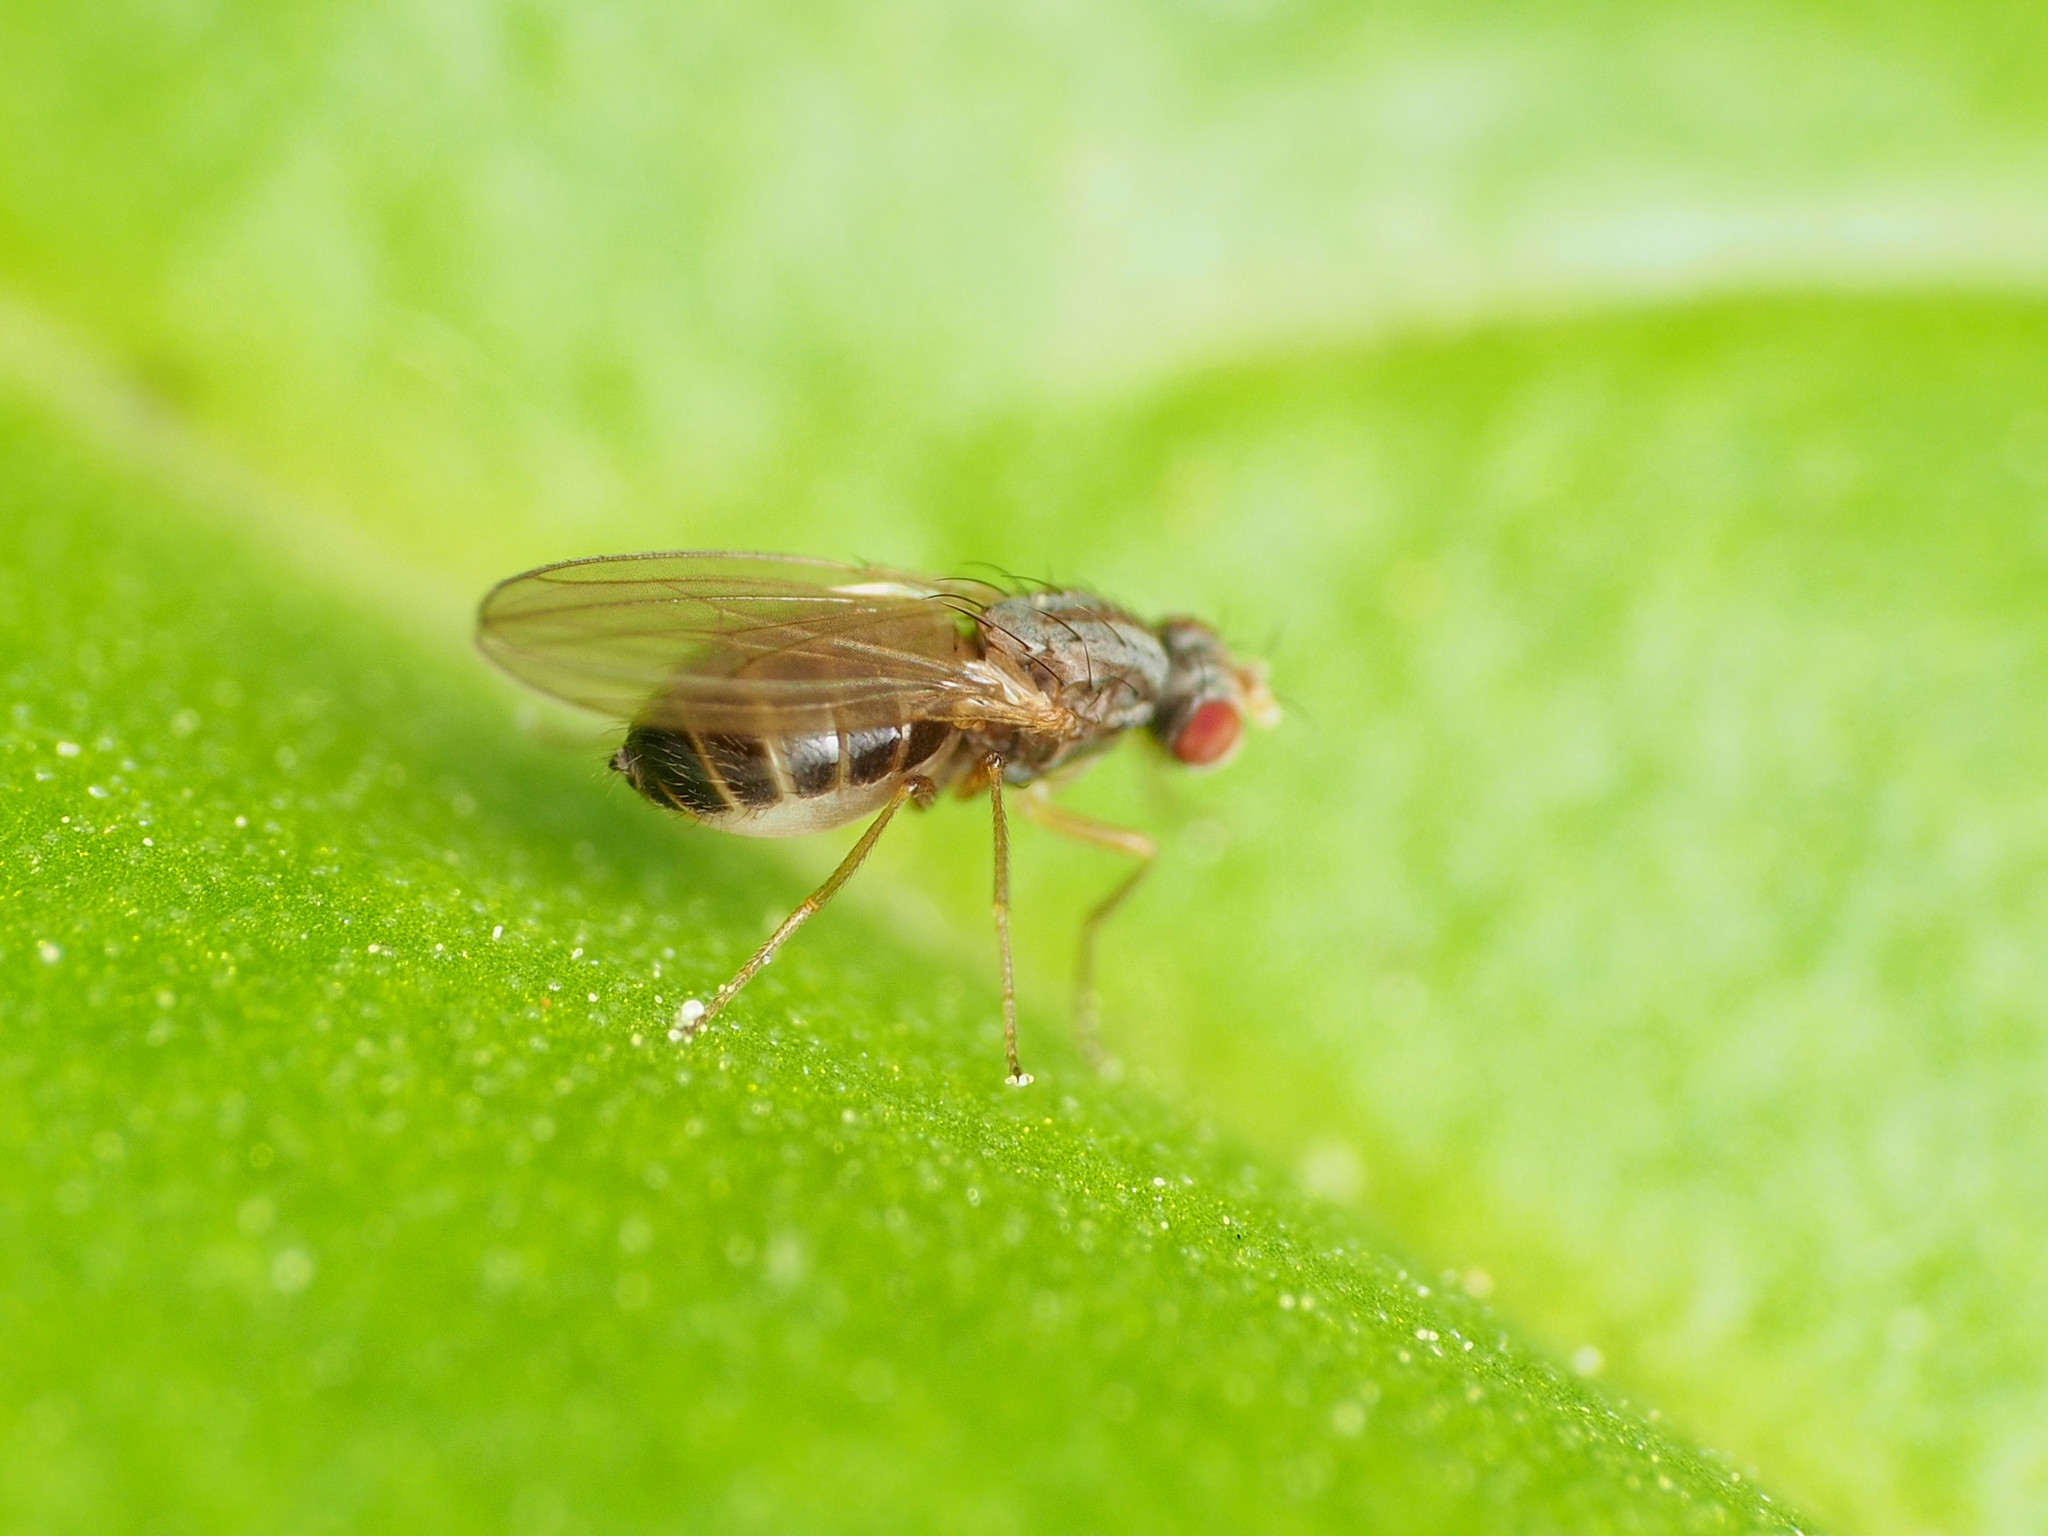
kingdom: Animalia
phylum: Arthropoda
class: Insecta
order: Diptera
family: Drosophilidae
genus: Scaptomyza
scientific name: Scaptomyza pallida
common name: Pomace fly
